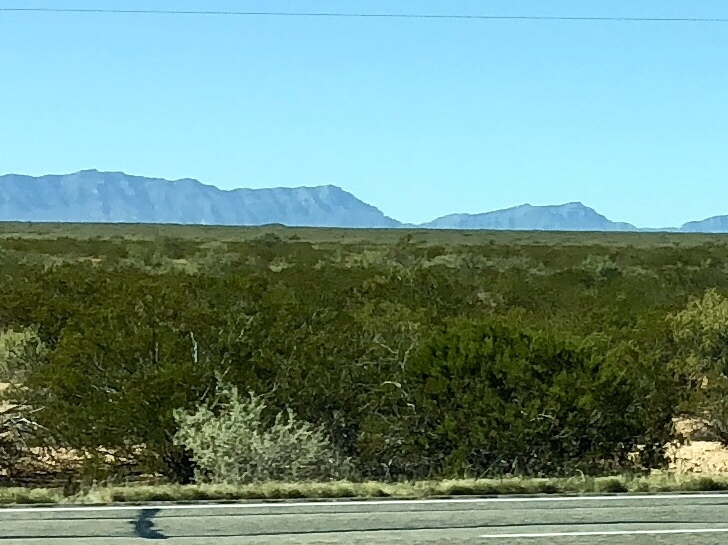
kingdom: Plantae
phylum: Tracheophyta
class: Magnoliopsida
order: Zygophyllales
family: Zygophyllaceae
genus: Larrea
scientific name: Larrea tridentata
